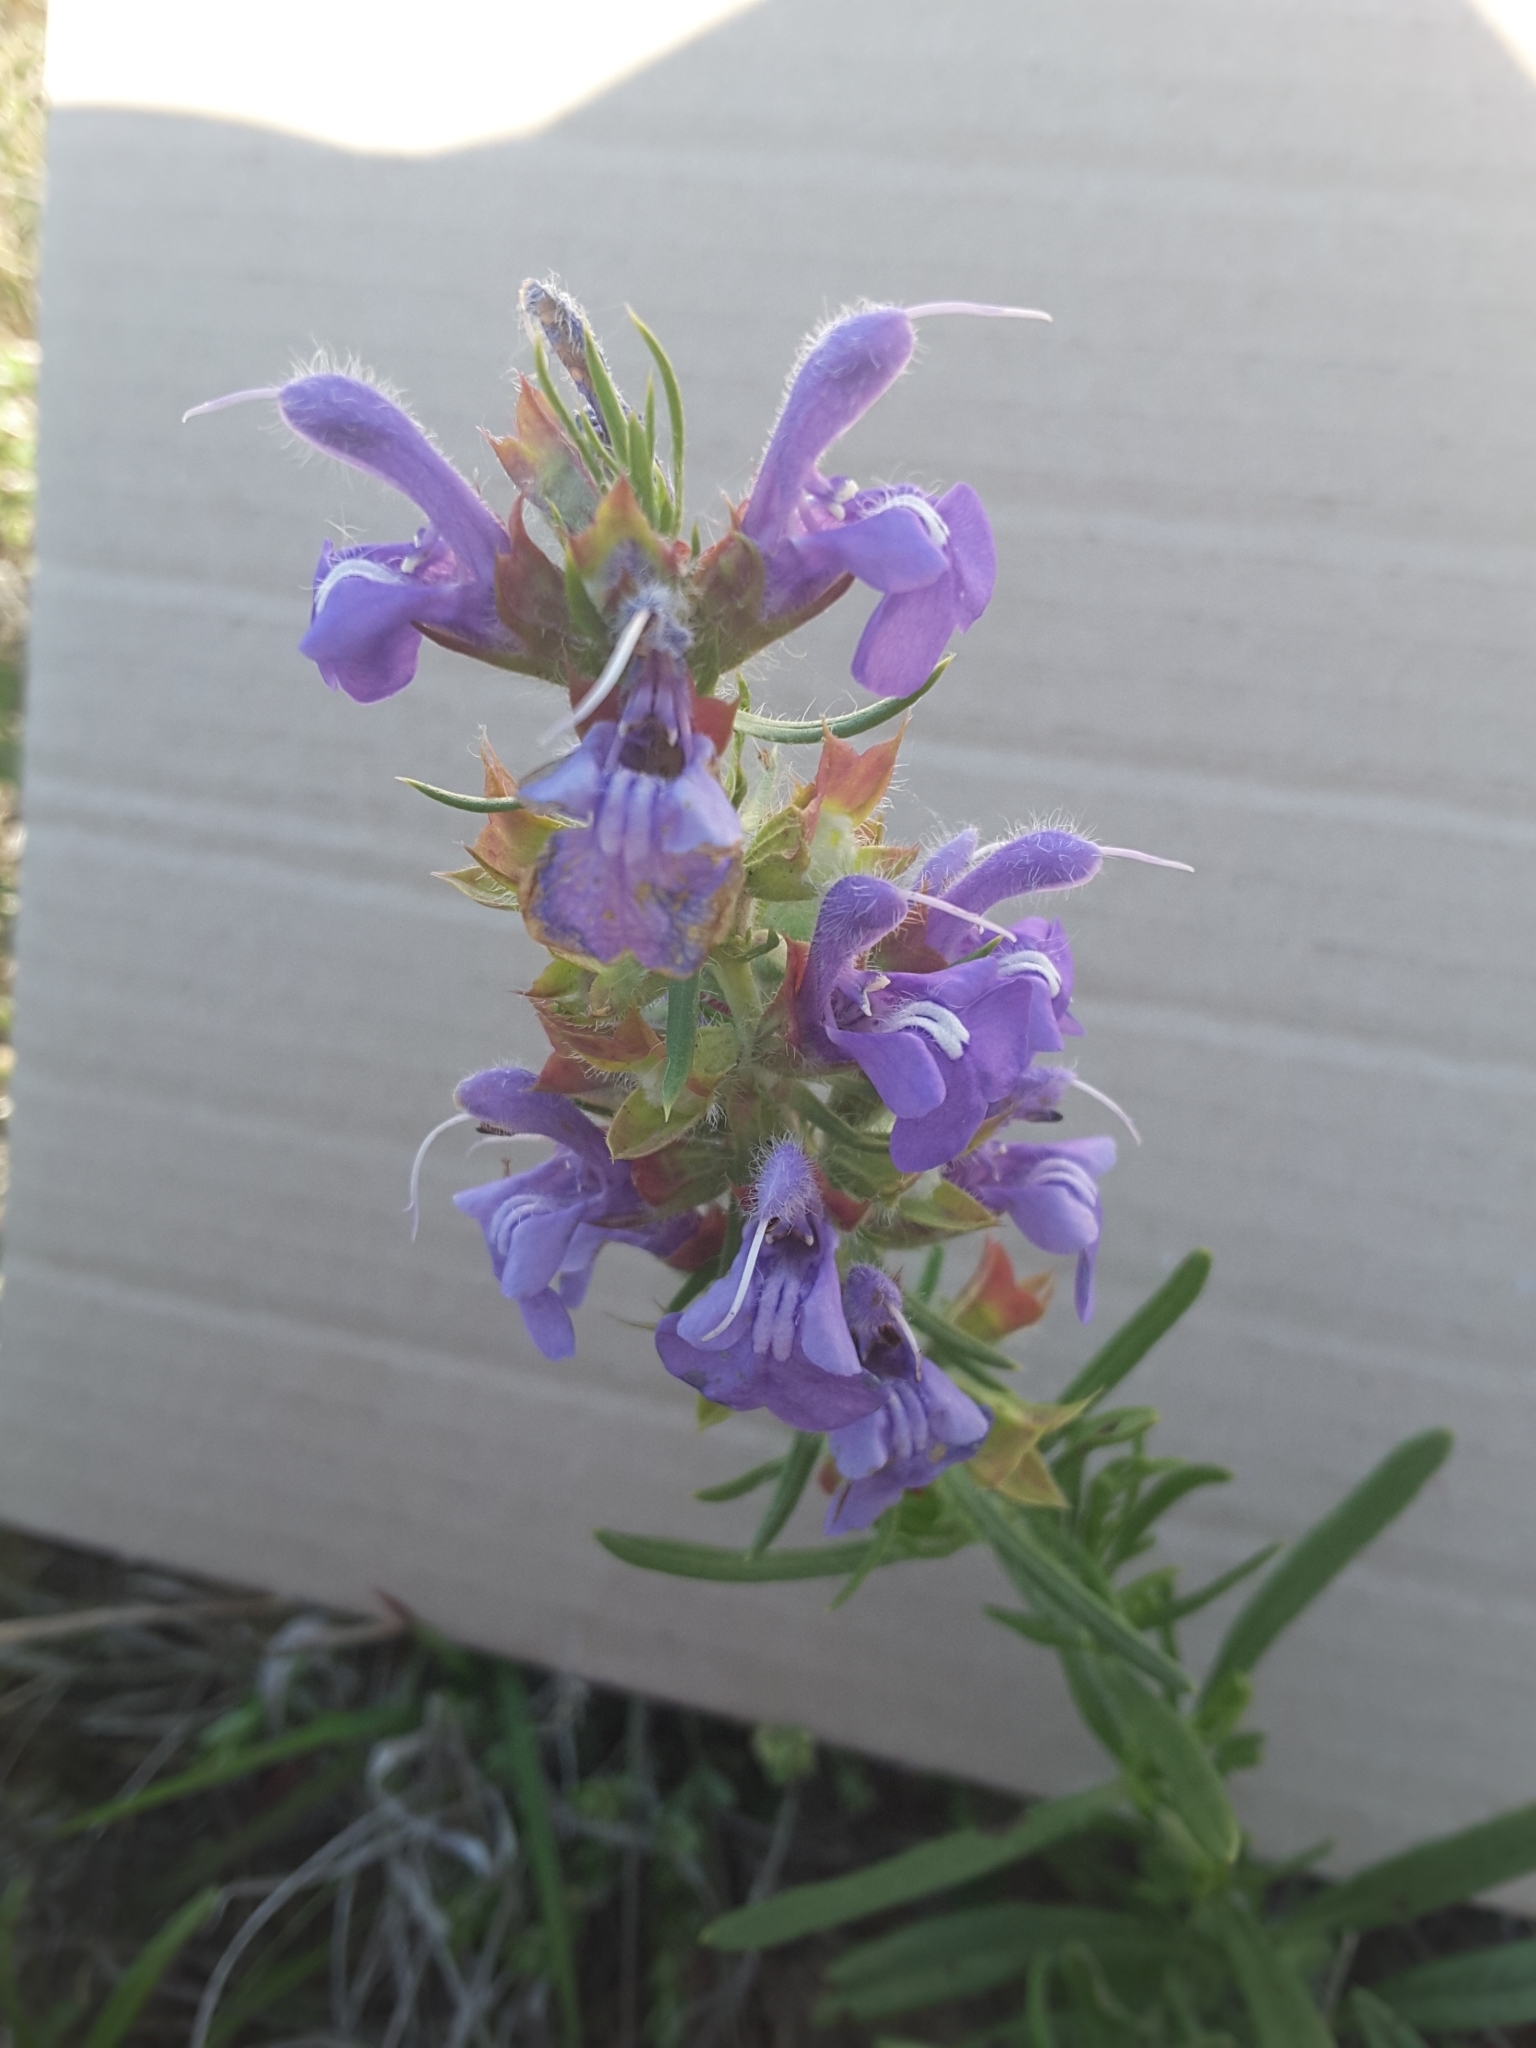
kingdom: Plantae
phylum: Tracheophyta
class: Magnoliopsida
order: Lamiales
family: Lamiaceae
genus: Salvia
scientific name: Salvia engelmannii
